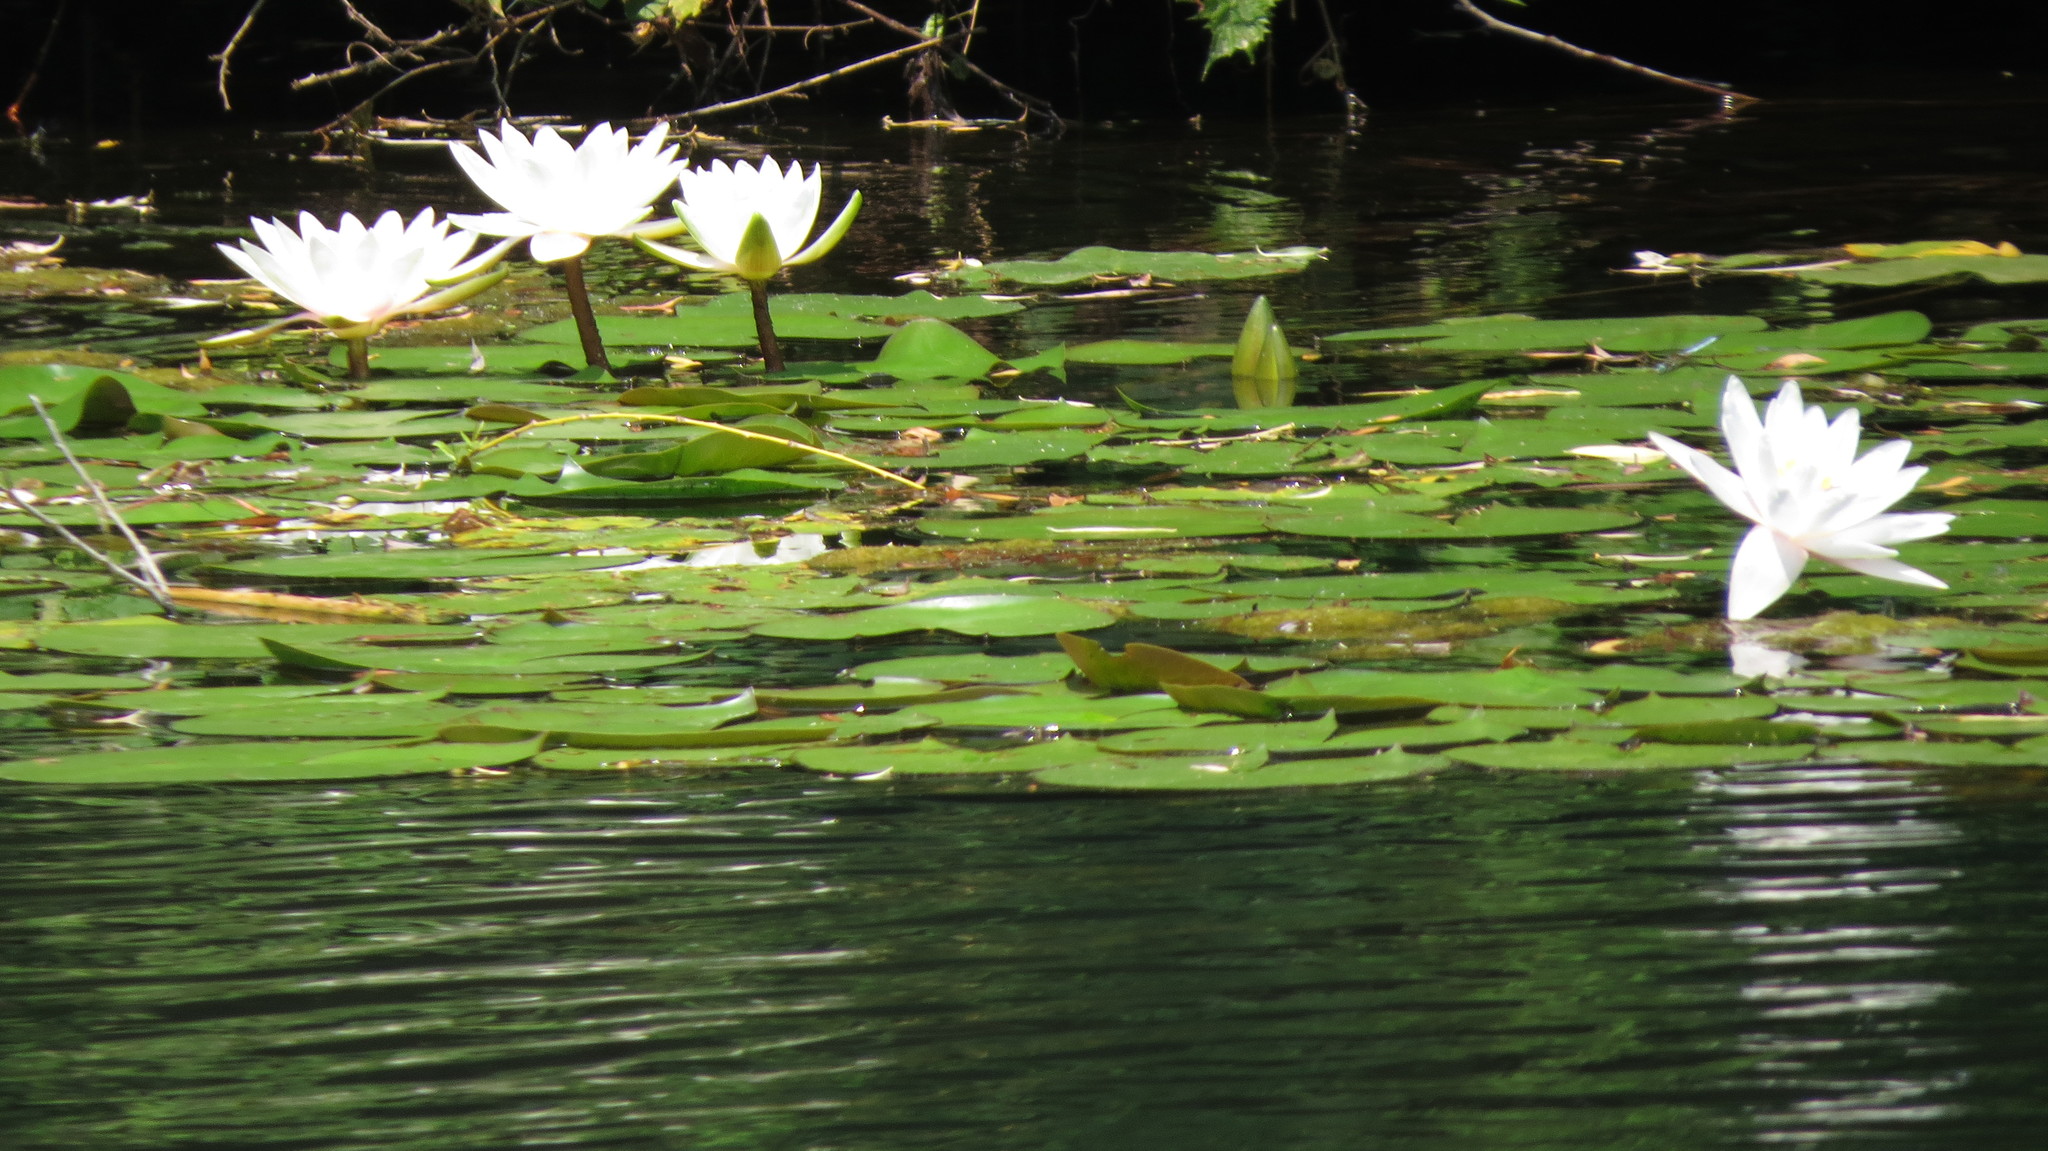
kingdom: Plantae
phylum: Tracheophyta
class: Magnoliopsida
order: Nymphaeales
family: Nymphaeaceae
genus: Nymphaea
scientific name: Nymphaea odorata
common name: Fragrant water-lily
